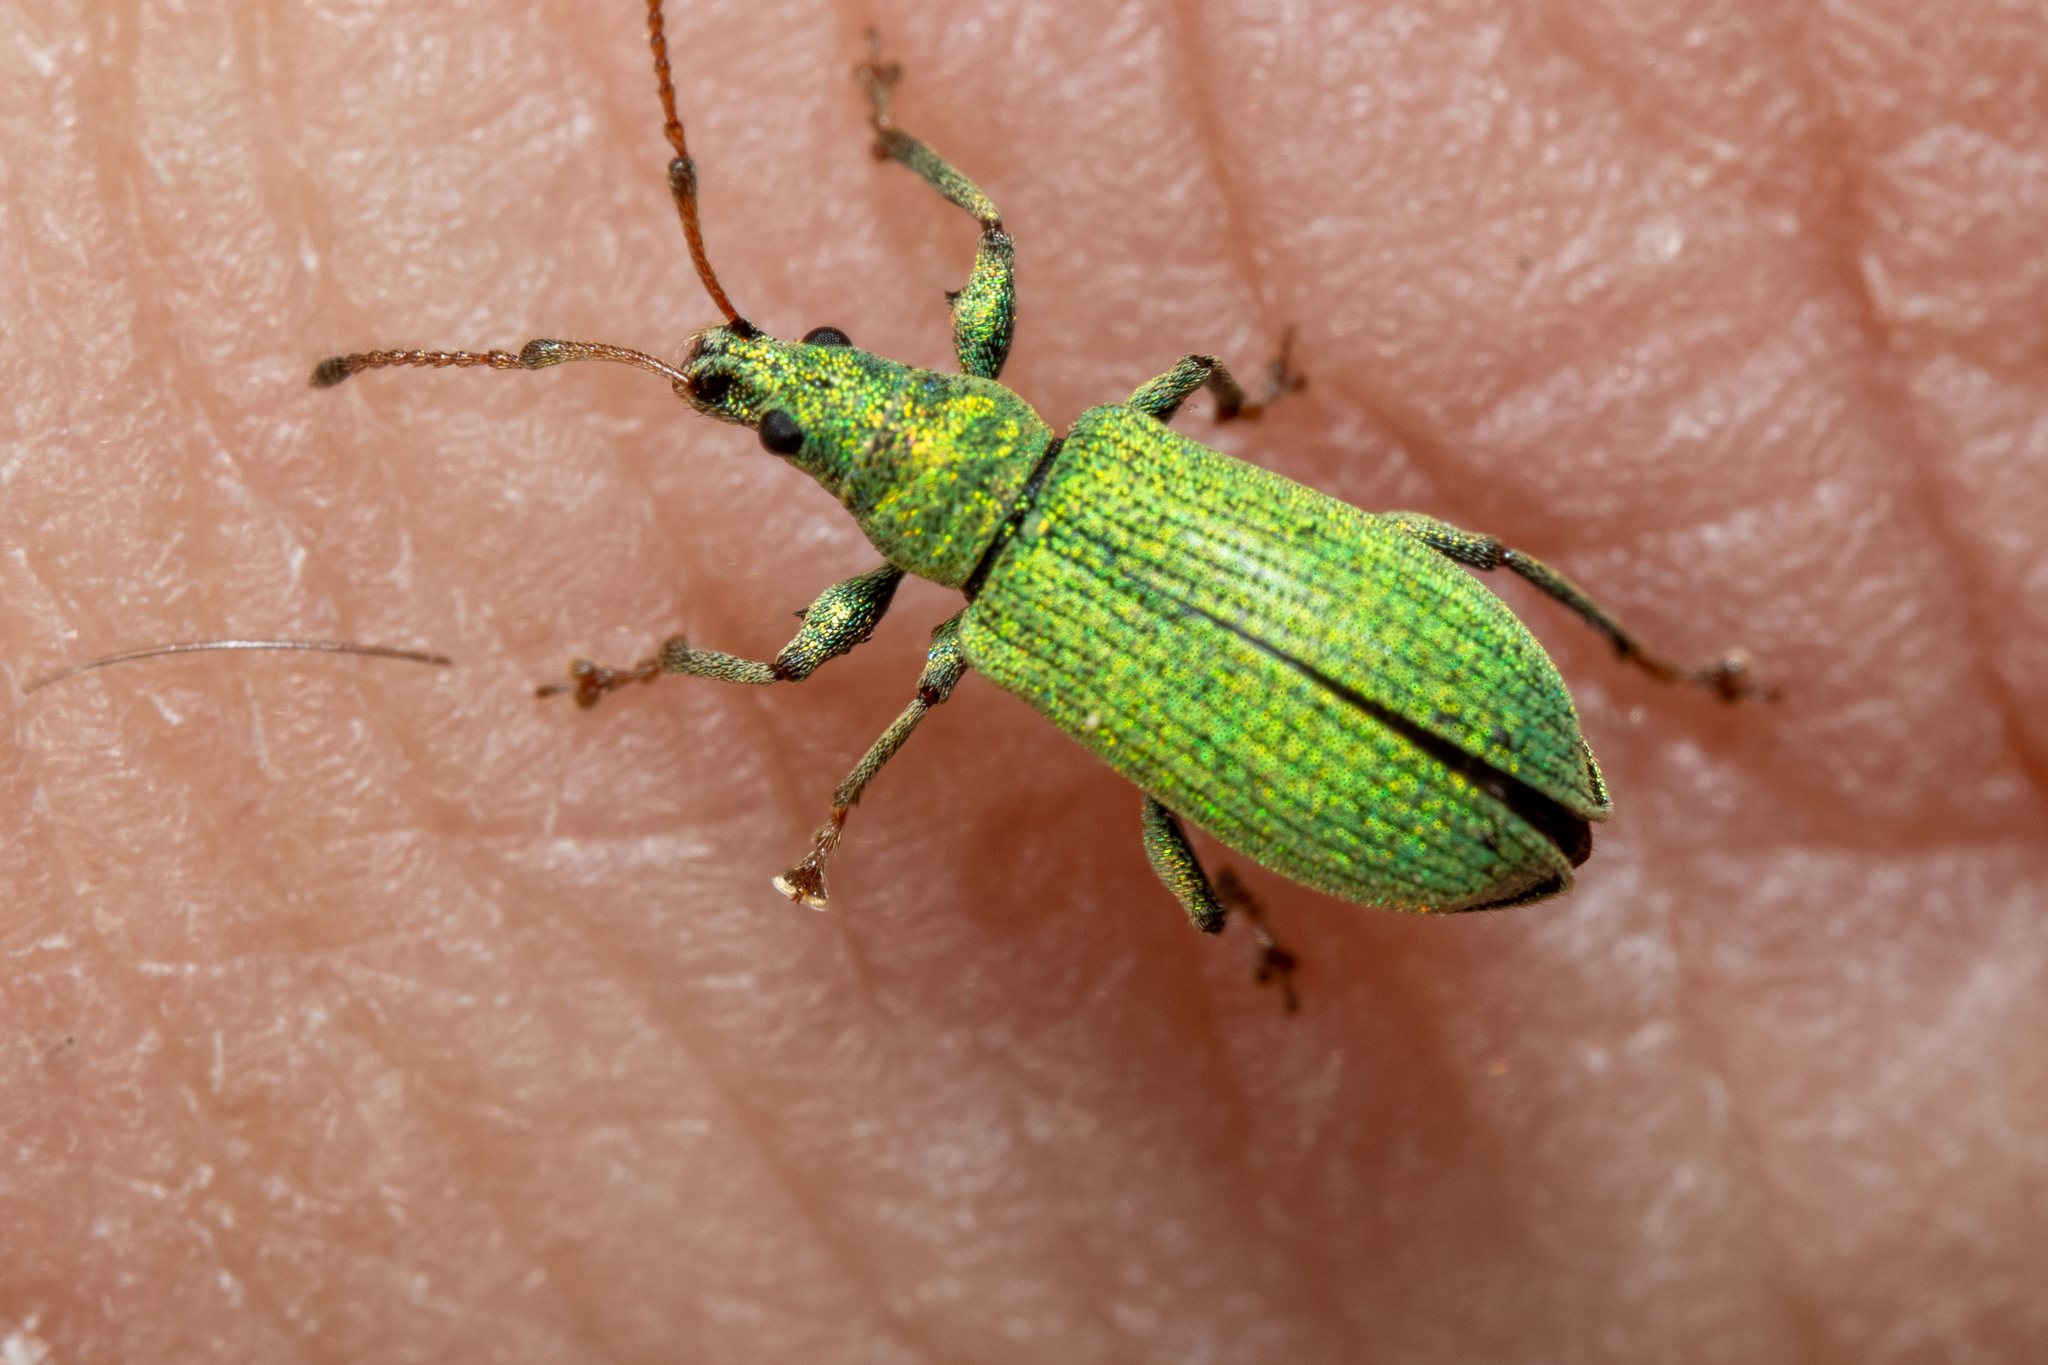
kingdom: Animalia
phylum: Arthropoda
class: Insecta
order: Coleoptera
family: Curculionidae
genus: Phyllobius
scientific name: Phyllobius maculicornis
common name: Green leaf weevil
